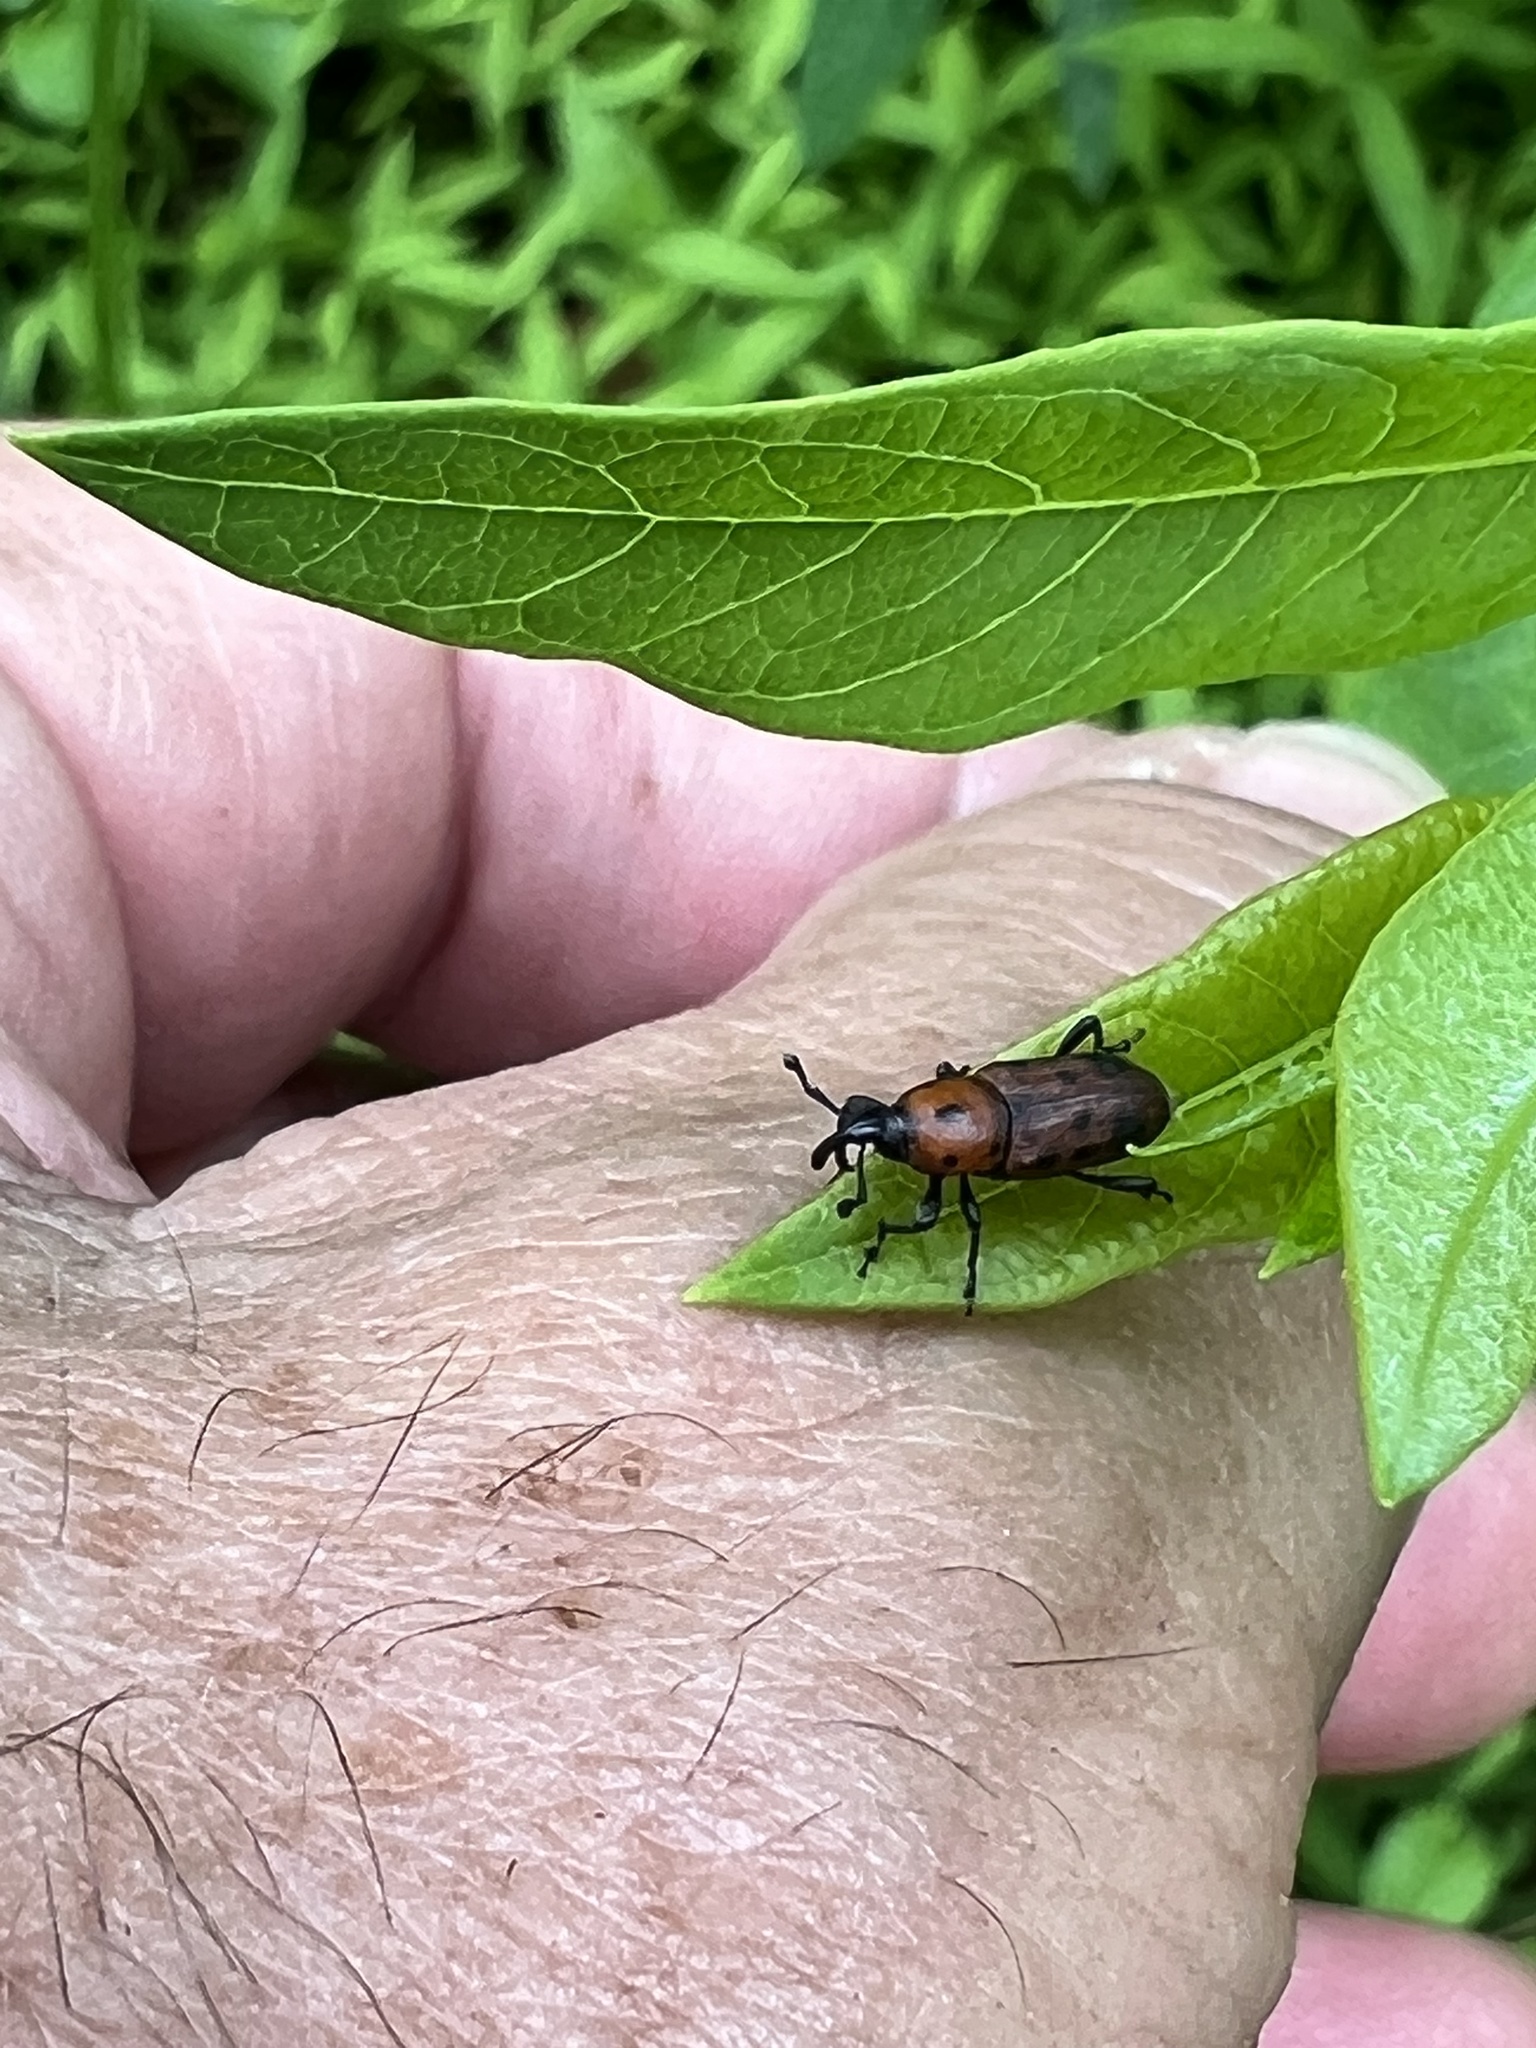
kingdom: Animalia
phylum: Arthropoda
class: Insecta
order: Coleoptera
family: Dryophthoridae
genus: Rhodobaenus
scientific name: Rhodobaenus tredecimpunctatus
